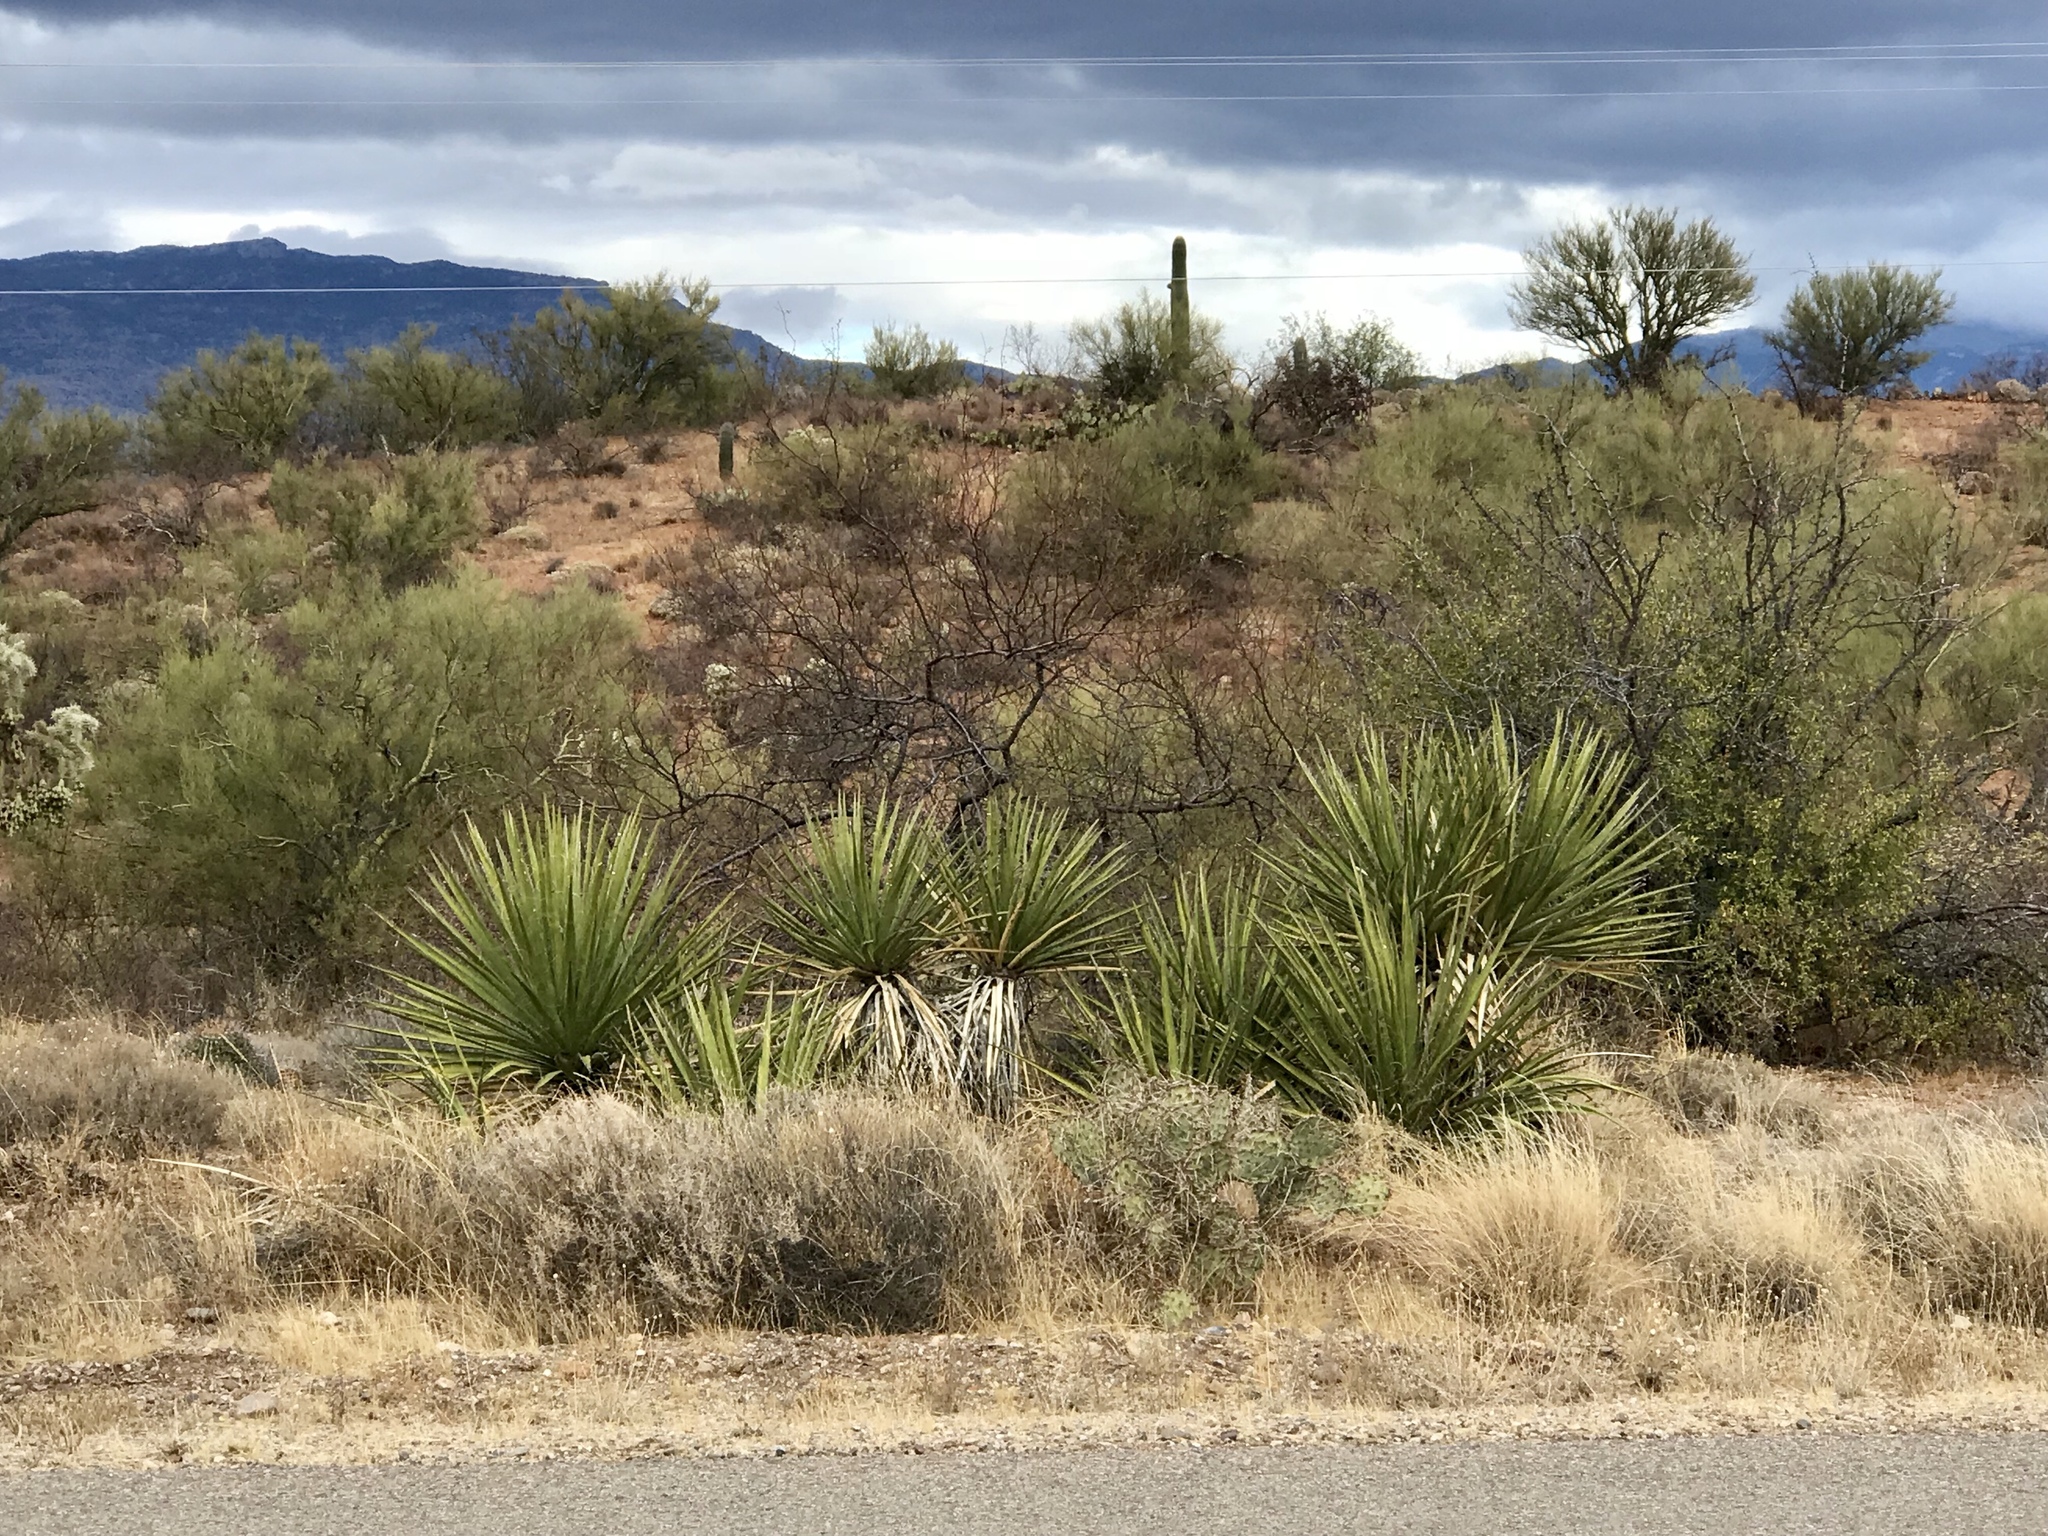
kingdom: Plantae
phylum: Tracheophyta
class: Liliopsida
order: Asparagales
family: Asparagaceae
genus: Yucca
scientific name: Yucca baccata
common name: Banana yucca
